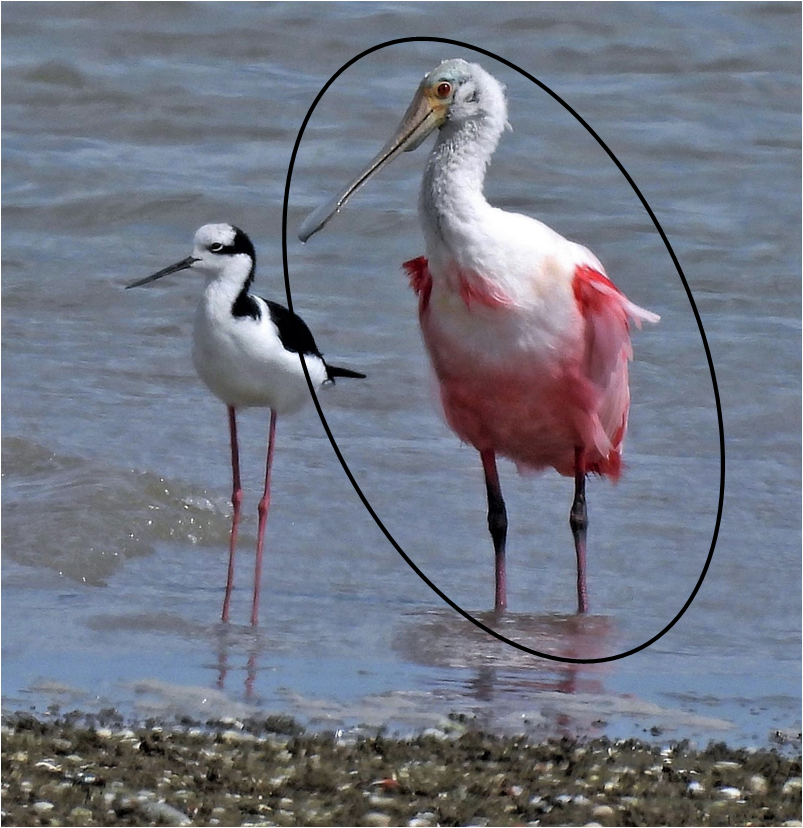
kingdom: Animalia
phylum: Chordata
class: Aves
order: Pelecaniformes
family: Threskiornithidae
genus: Platalea
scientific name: Platalea ajaja
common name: Roseate spoonbill
